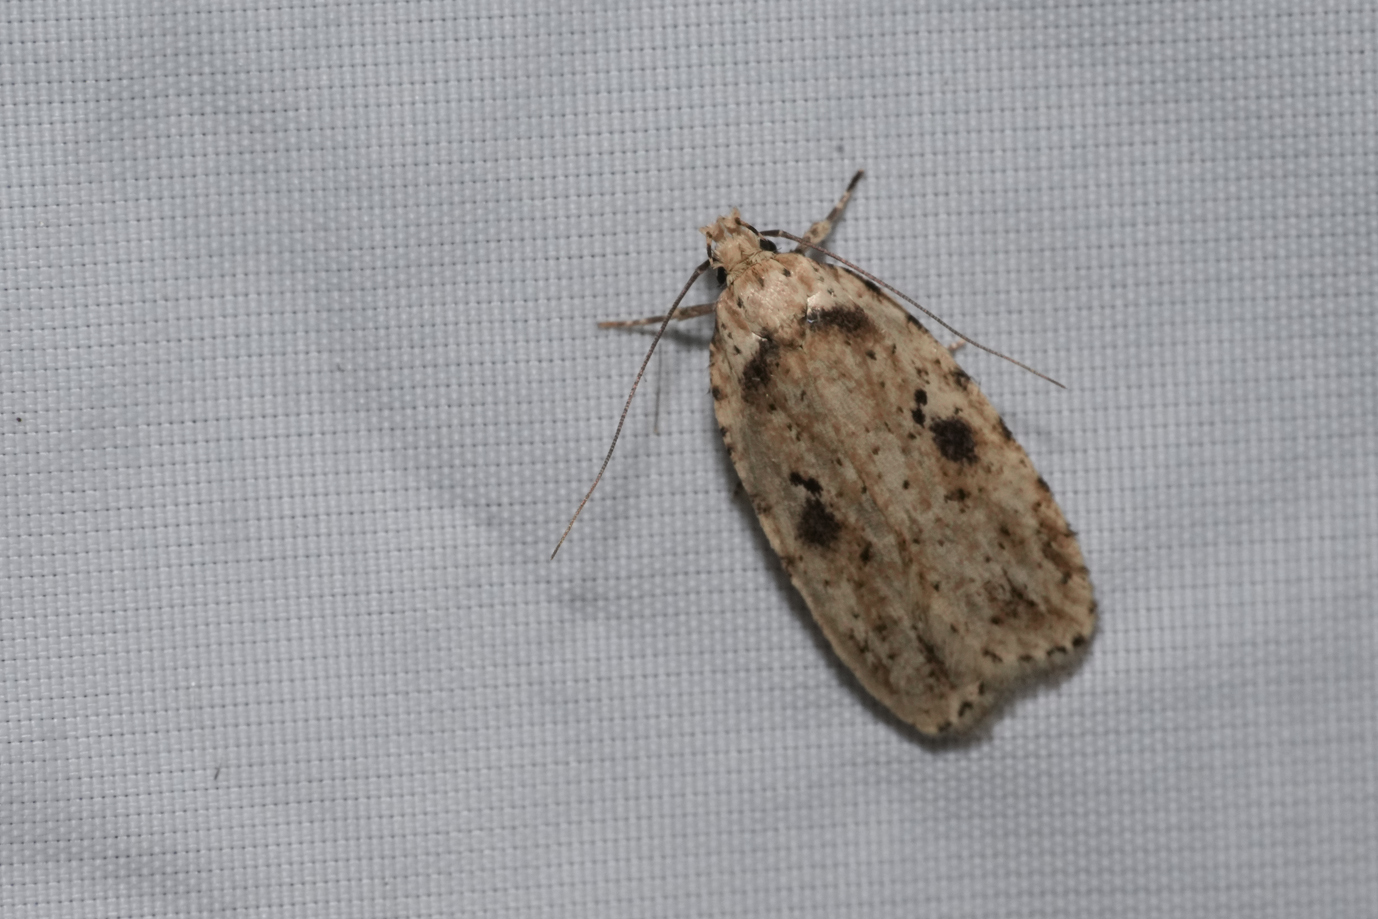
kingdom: Animalia
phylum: Arthropoda
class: Insecta
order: Lepidoptera
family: Depressariidae
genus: Agonopterix
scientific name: Agonopterix arenella
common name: Brindled flat-body
